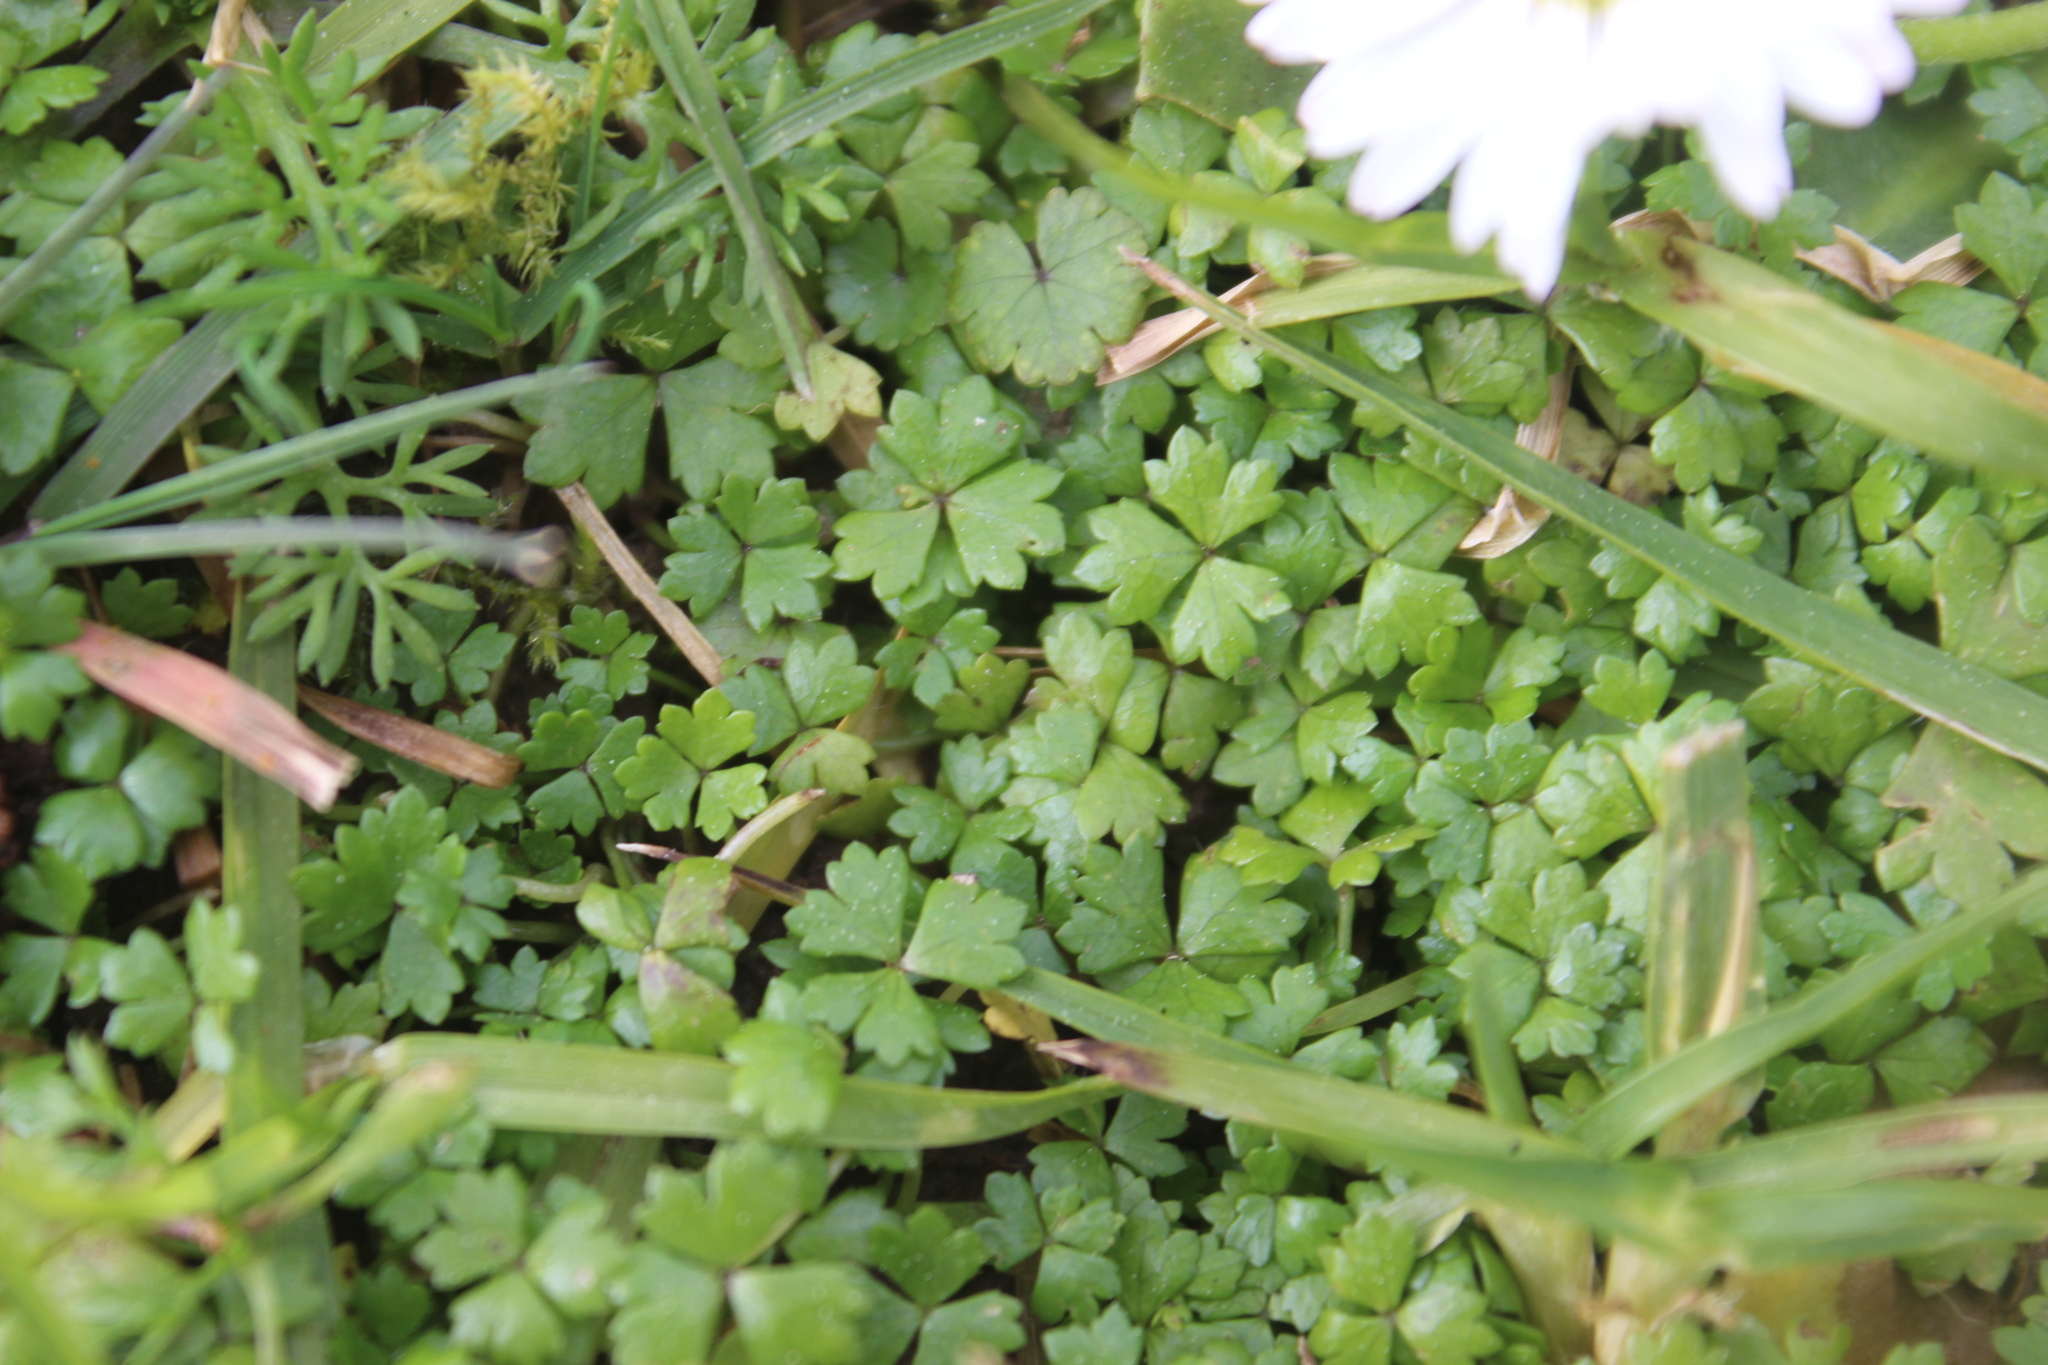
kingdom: Plantae
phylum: Tracheophyta
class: Magnoliopsida
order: Apiales
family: Araliaceae
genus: Hydrocotyle
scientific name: Hydrocotyle tripartita
